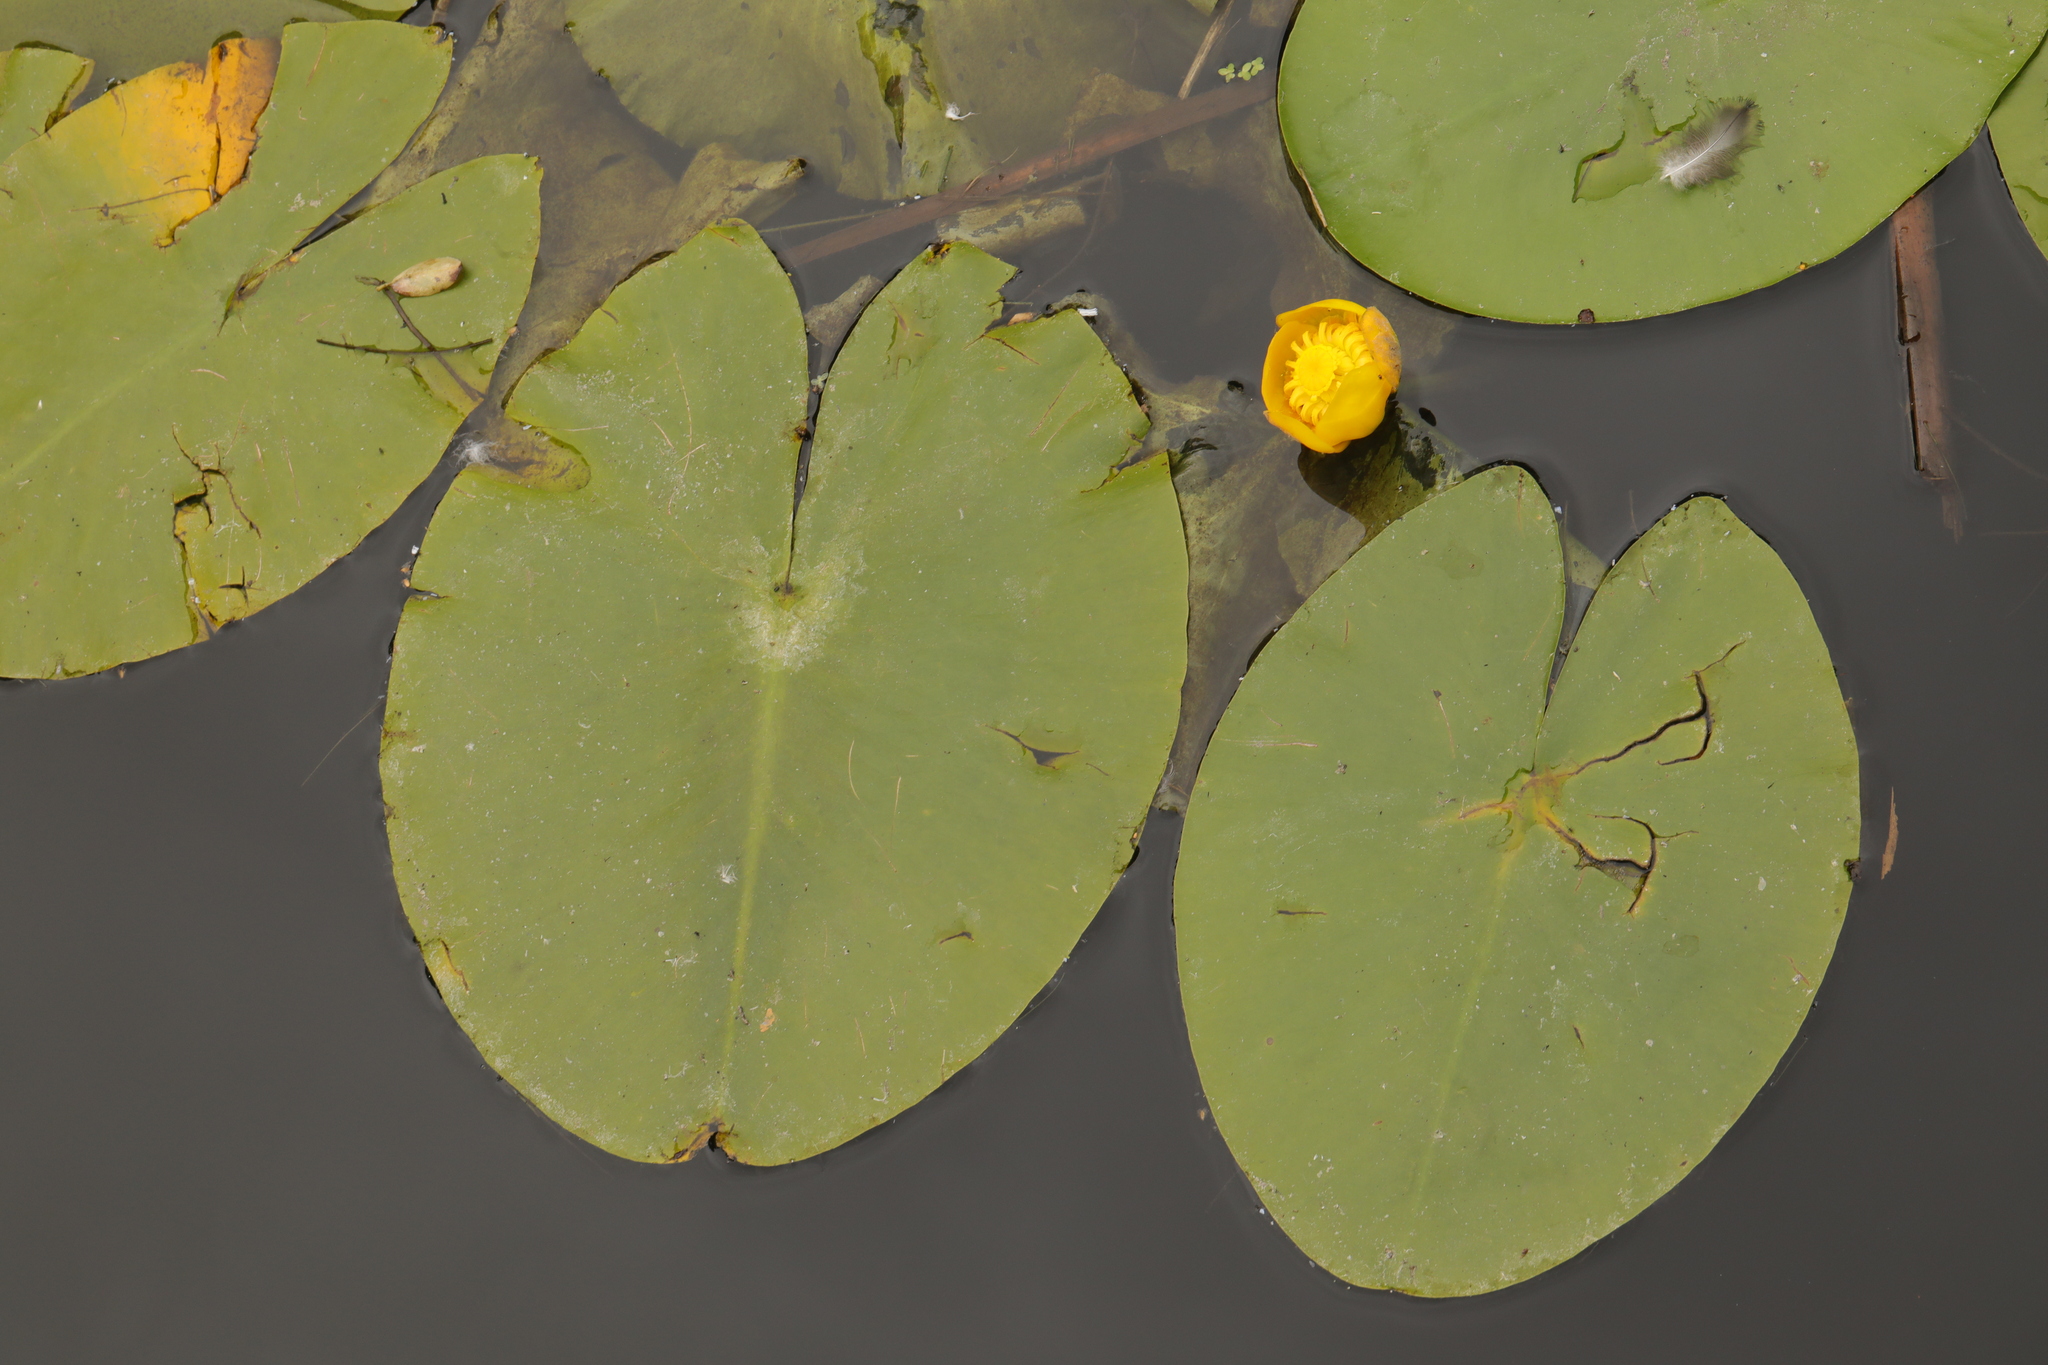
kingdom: Plantae
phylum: Tracheophyta
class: Magnoliopsida
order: Nymphaeales
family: Nymphaeaceae
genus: Nuphar
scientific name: Nuphar lutea
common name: Yellow water-lily
